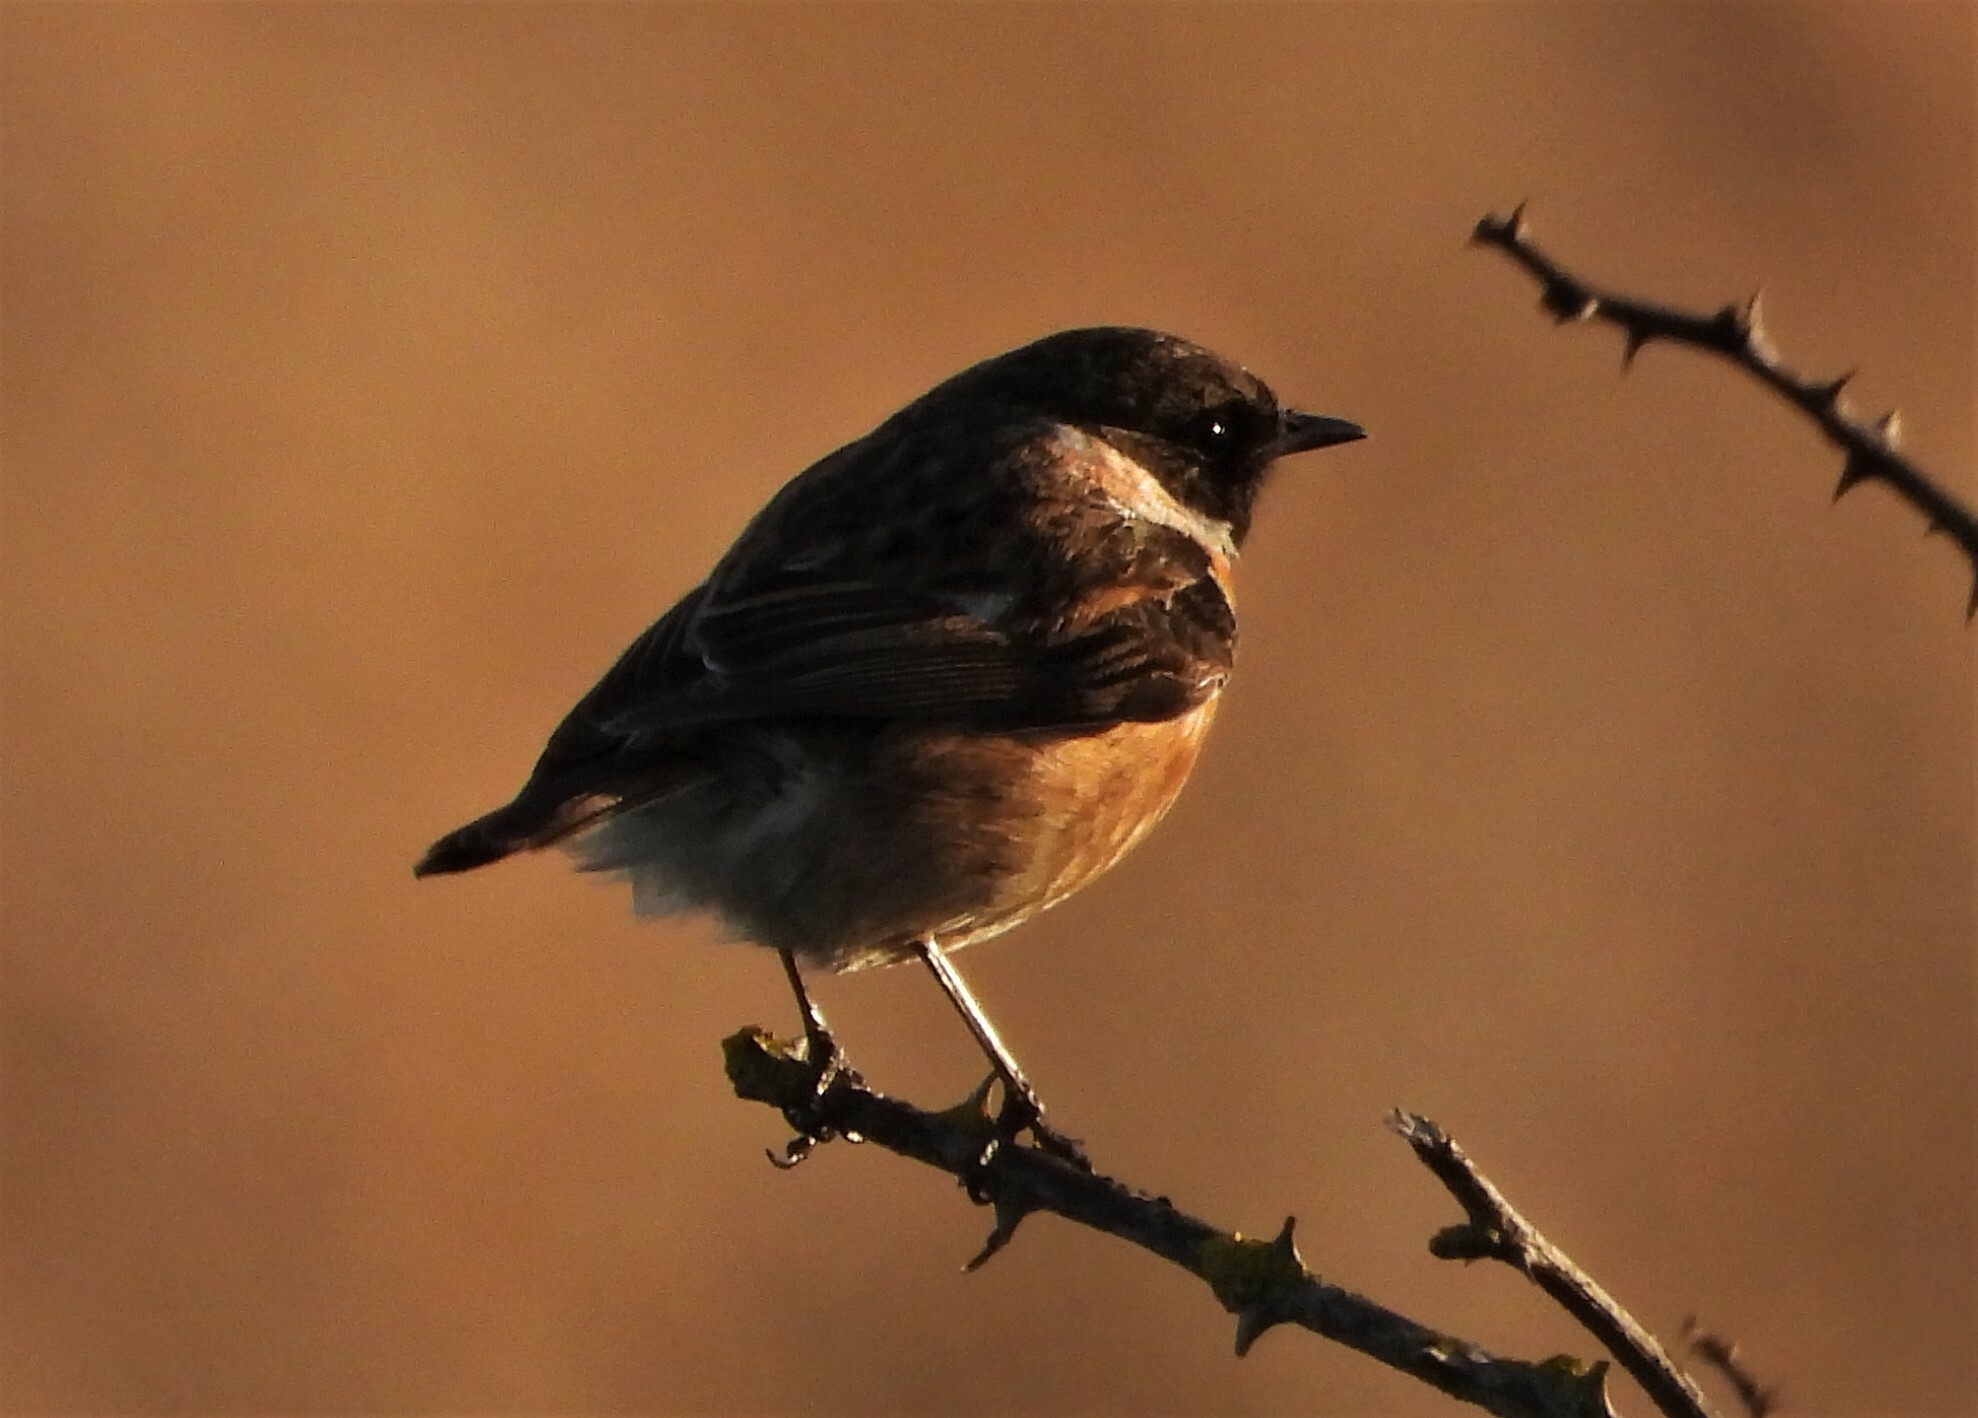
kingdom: Animalia
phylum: Chordata
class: Aves
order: Passeriformes
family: Muscicapidae
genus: Saxicola
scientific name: Saxicola rubicola
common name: European stonechat
